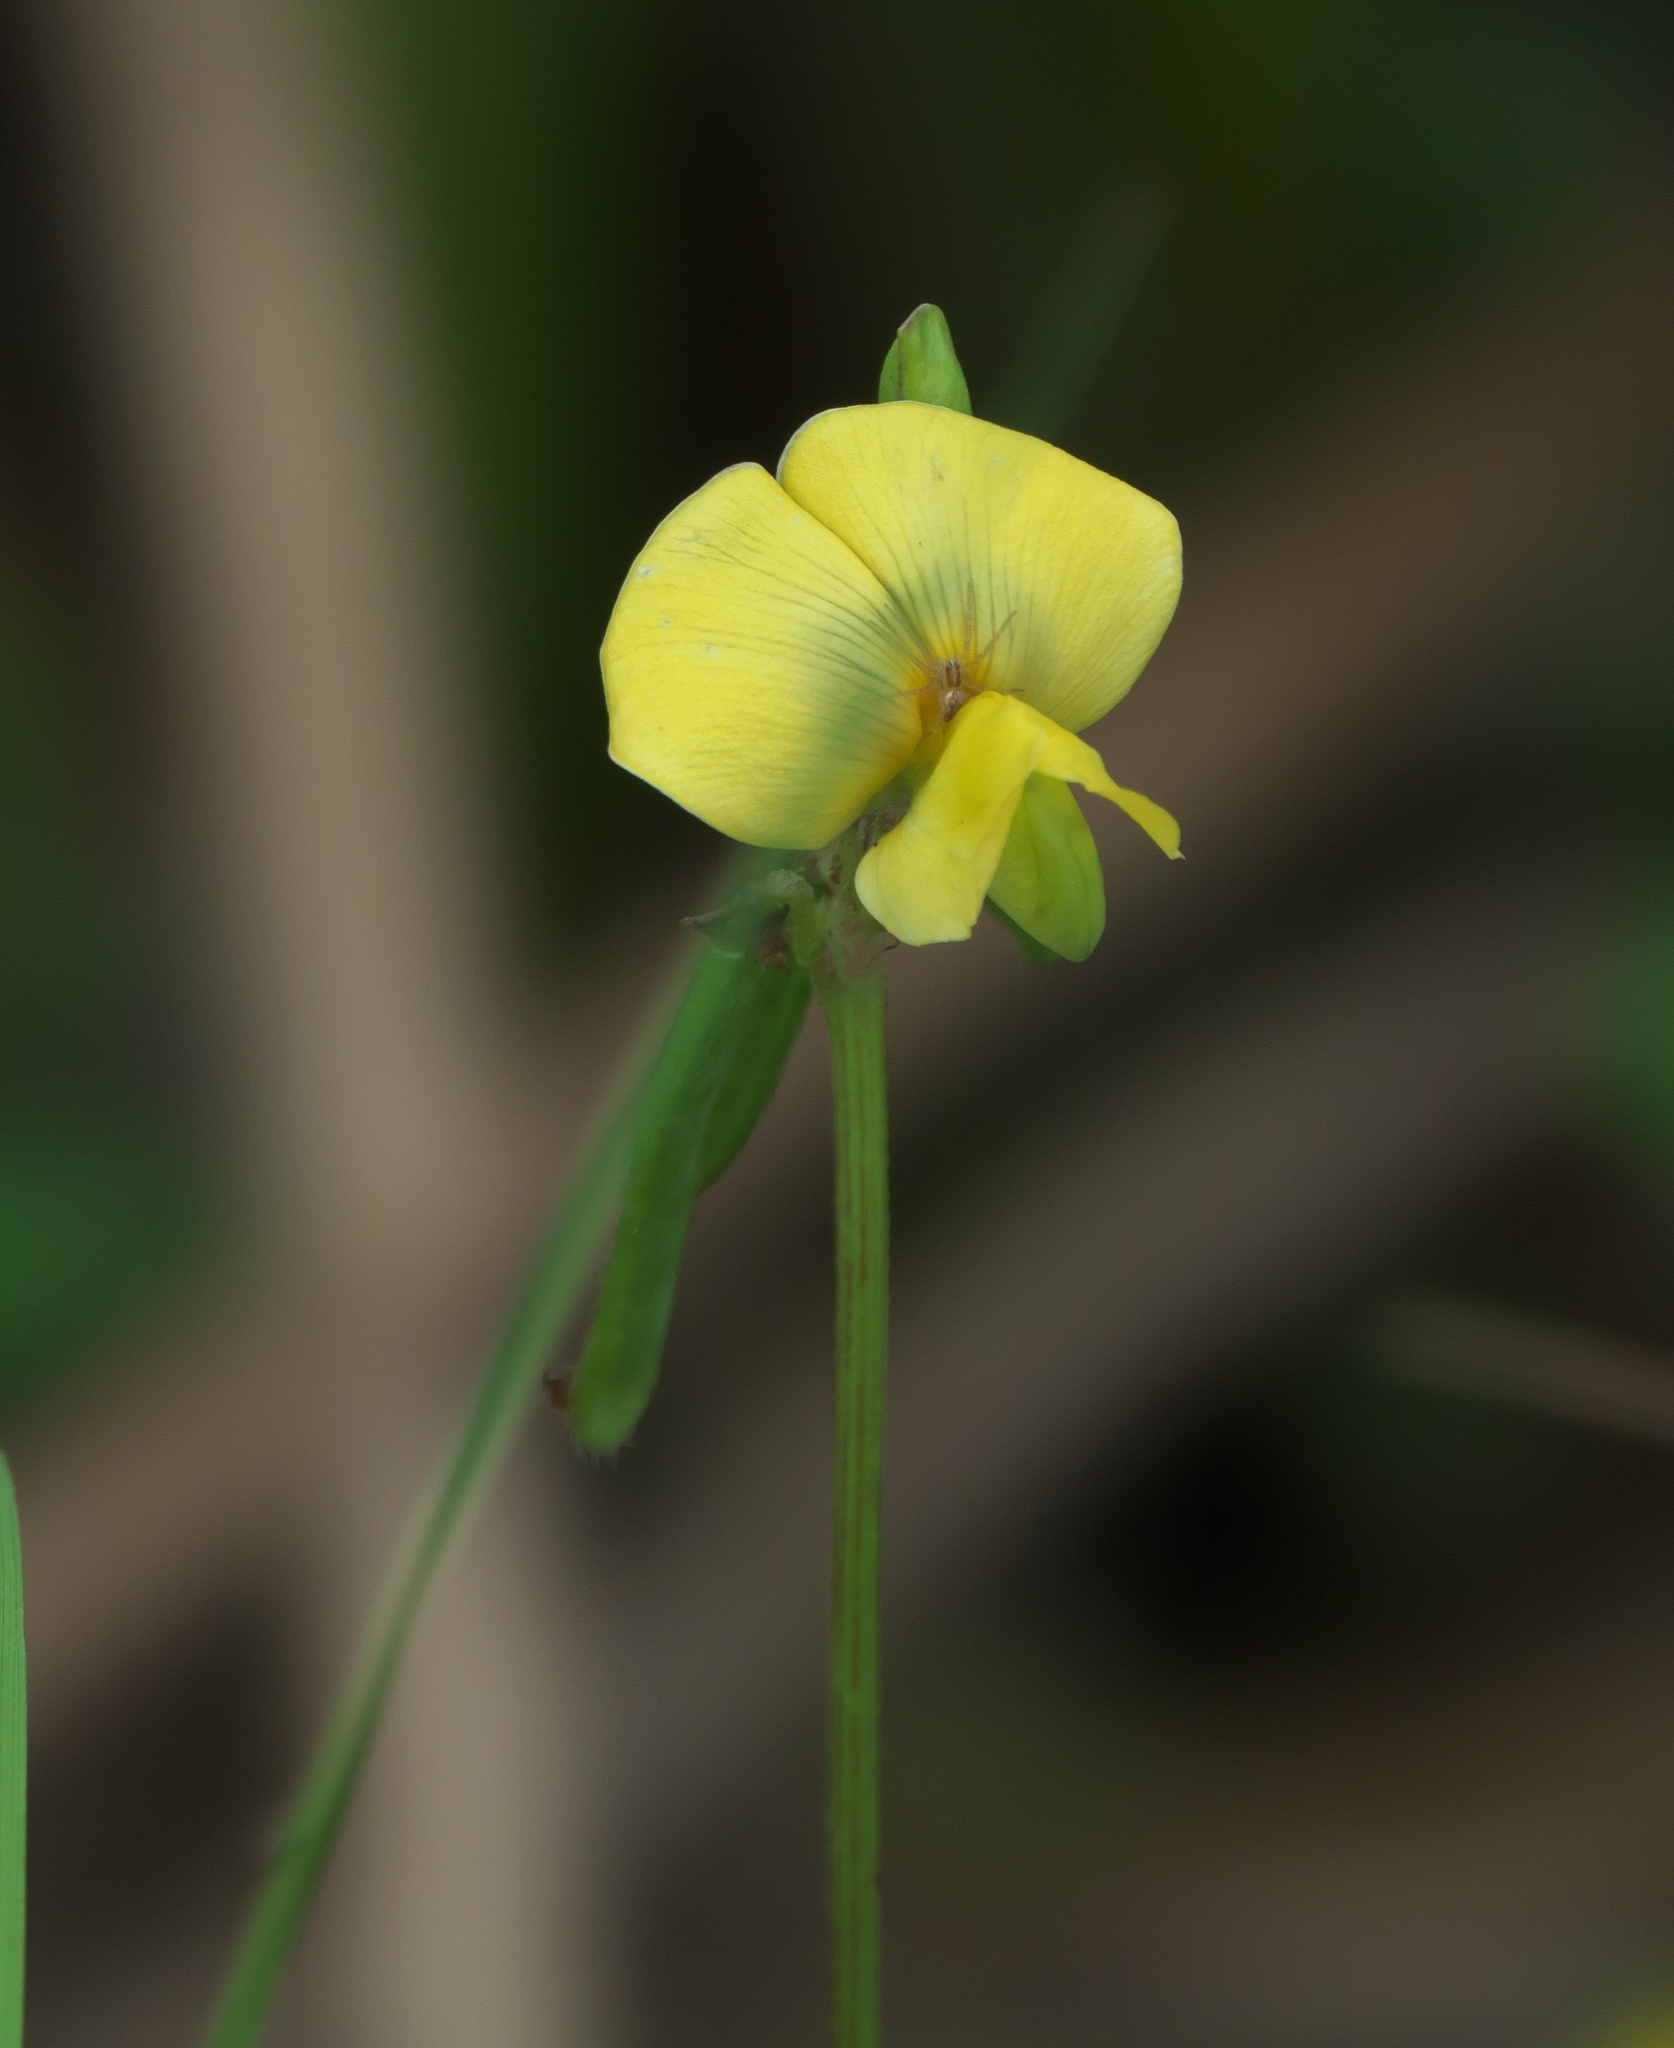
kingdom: Plantae
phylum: Tracheophyta
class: Magnoliopsida
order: Fabales
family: Fabaceae
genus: Vigna
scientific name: Vigna luteola
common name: Hairypod cowpea
